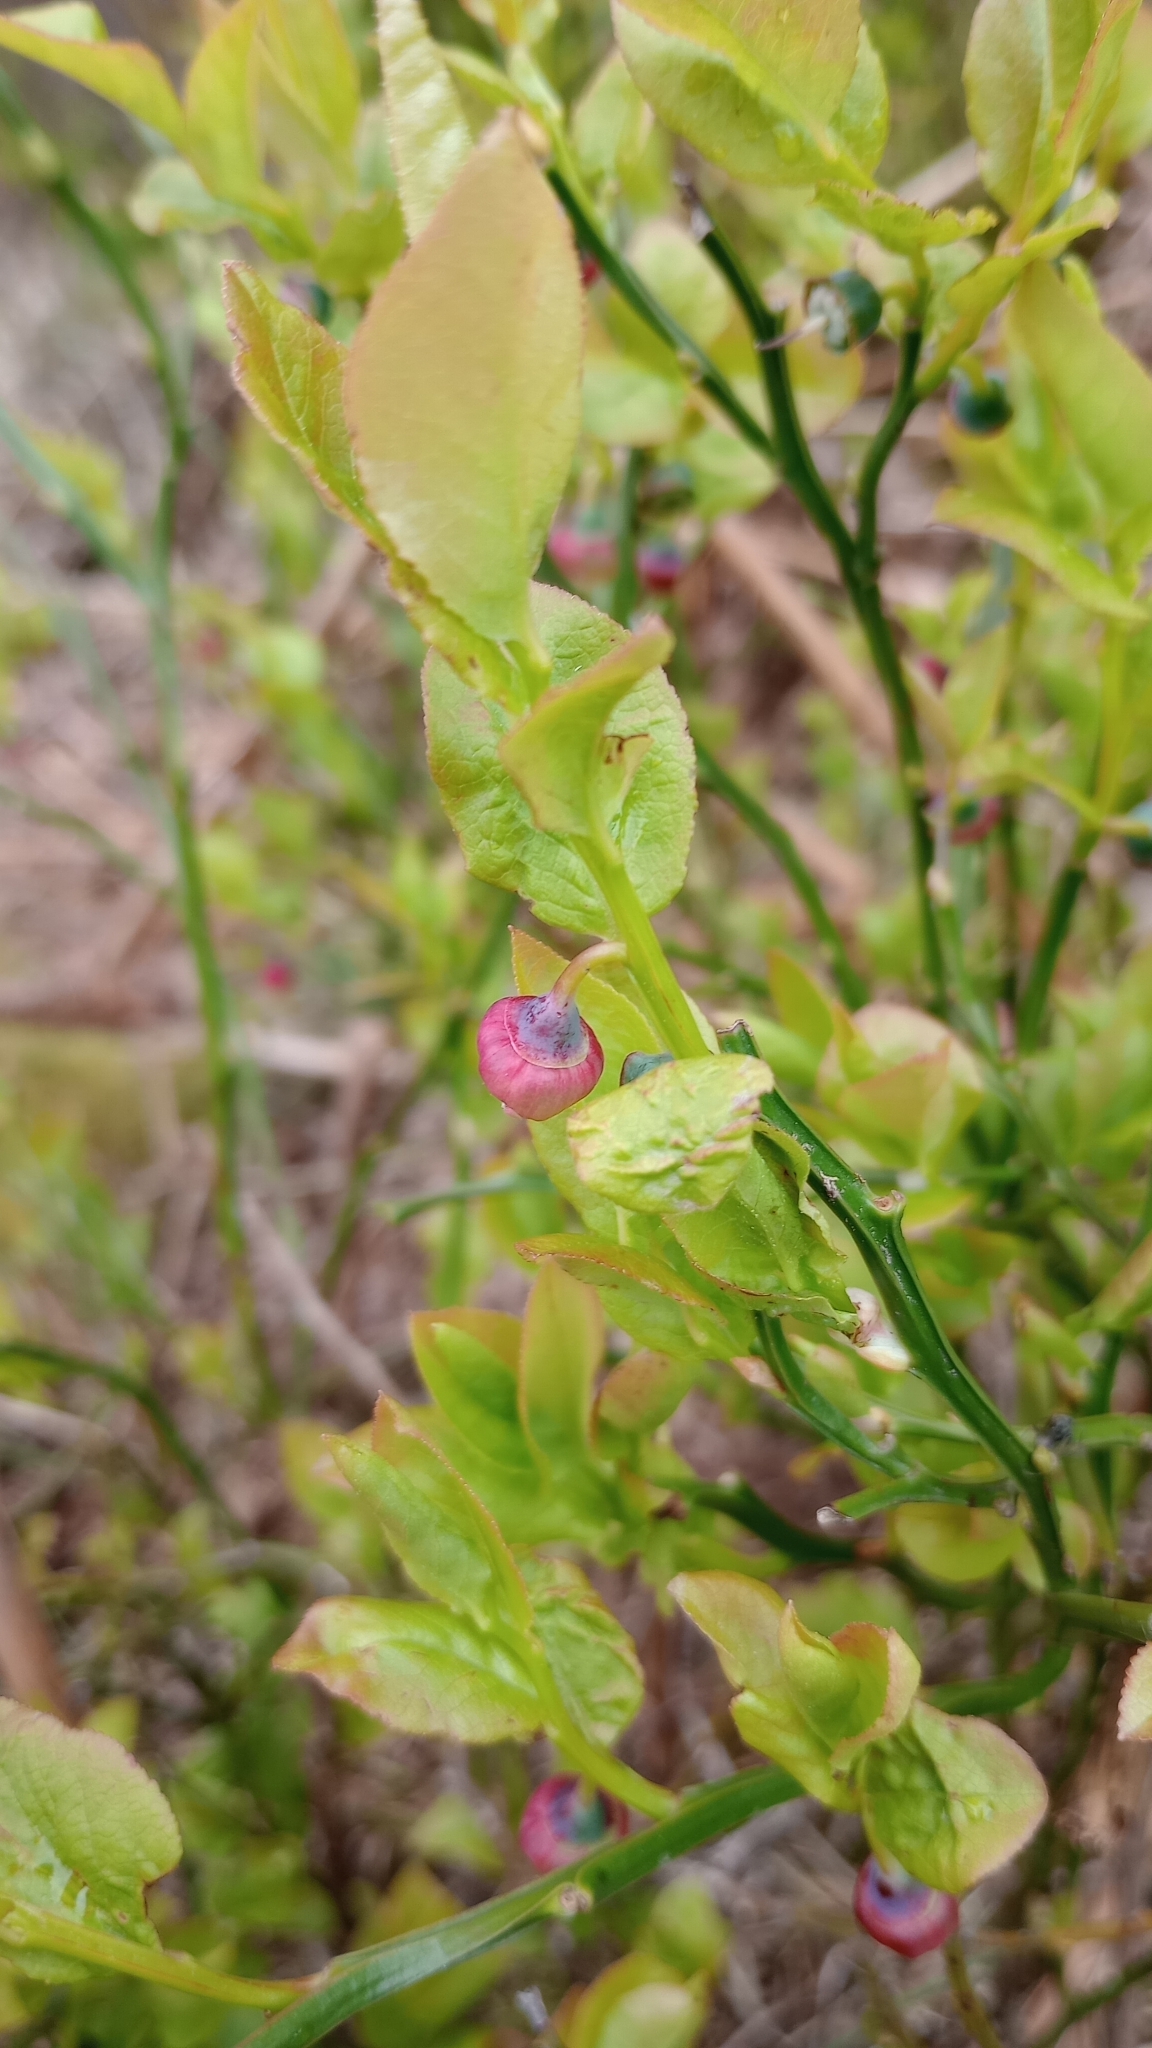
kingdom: Plantae
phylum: Tracheophyta
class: Magnoliopsida
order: Ericales
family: Ericaceae
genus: Vaccinium
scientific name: Vaccinium myrtillus
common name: Bilberry
